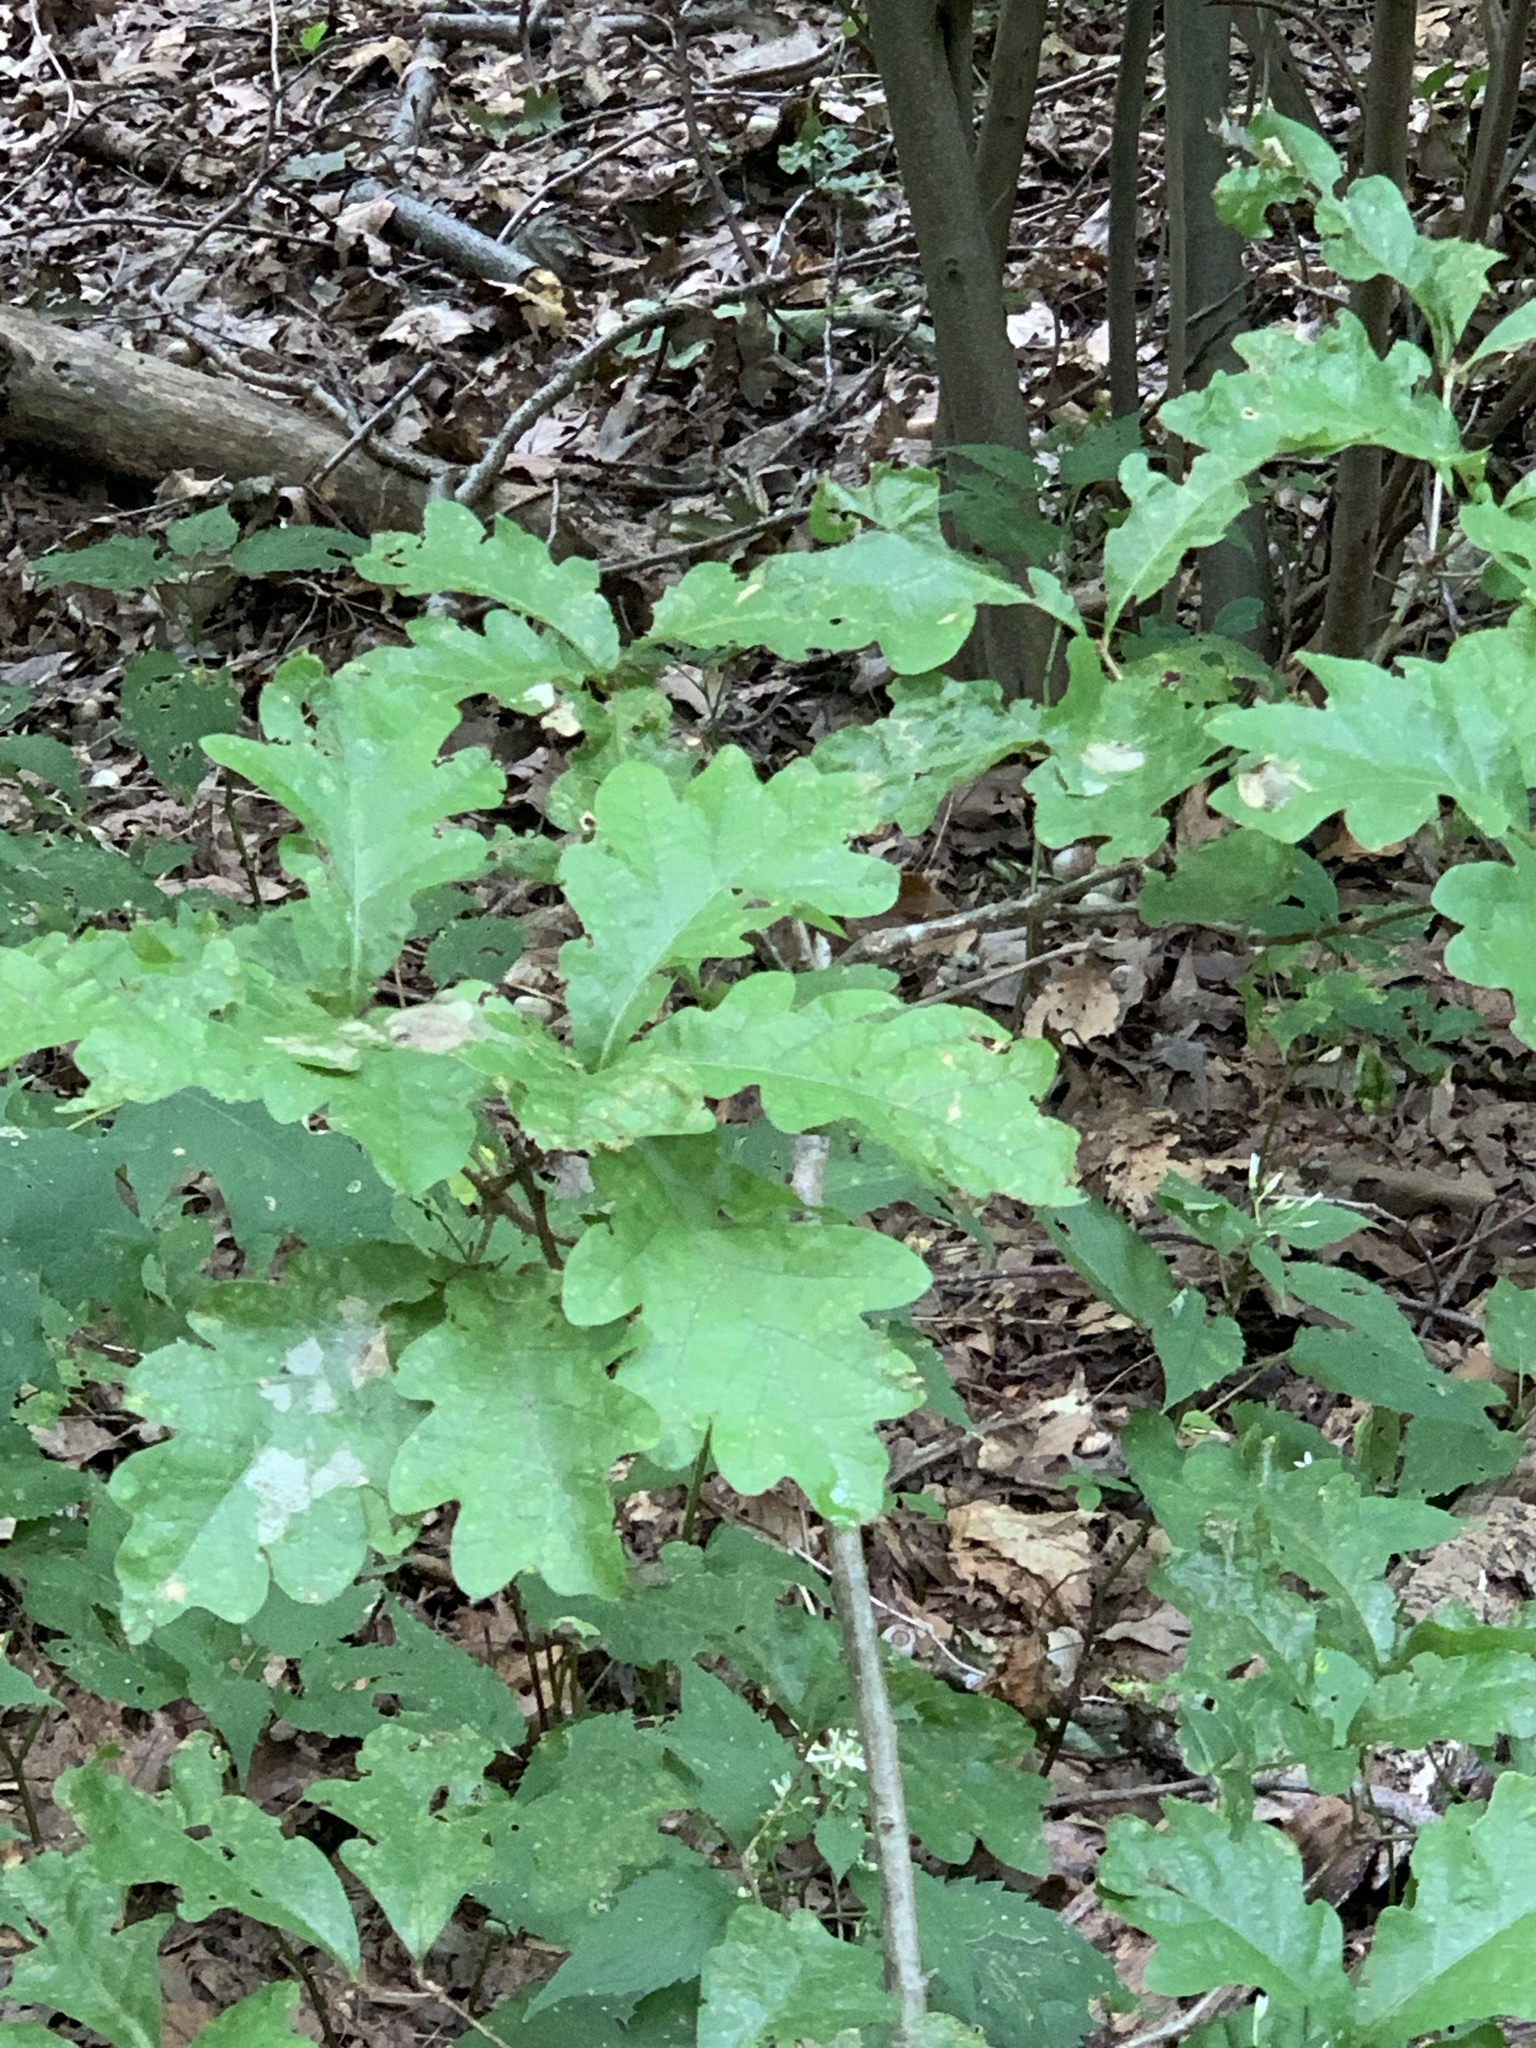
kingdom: Plantae
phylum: Tracheophyta
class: Magnoliopsida
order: Fagales
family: Fagaceae
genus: Quercus
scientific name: Quercus alba
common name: White oak
